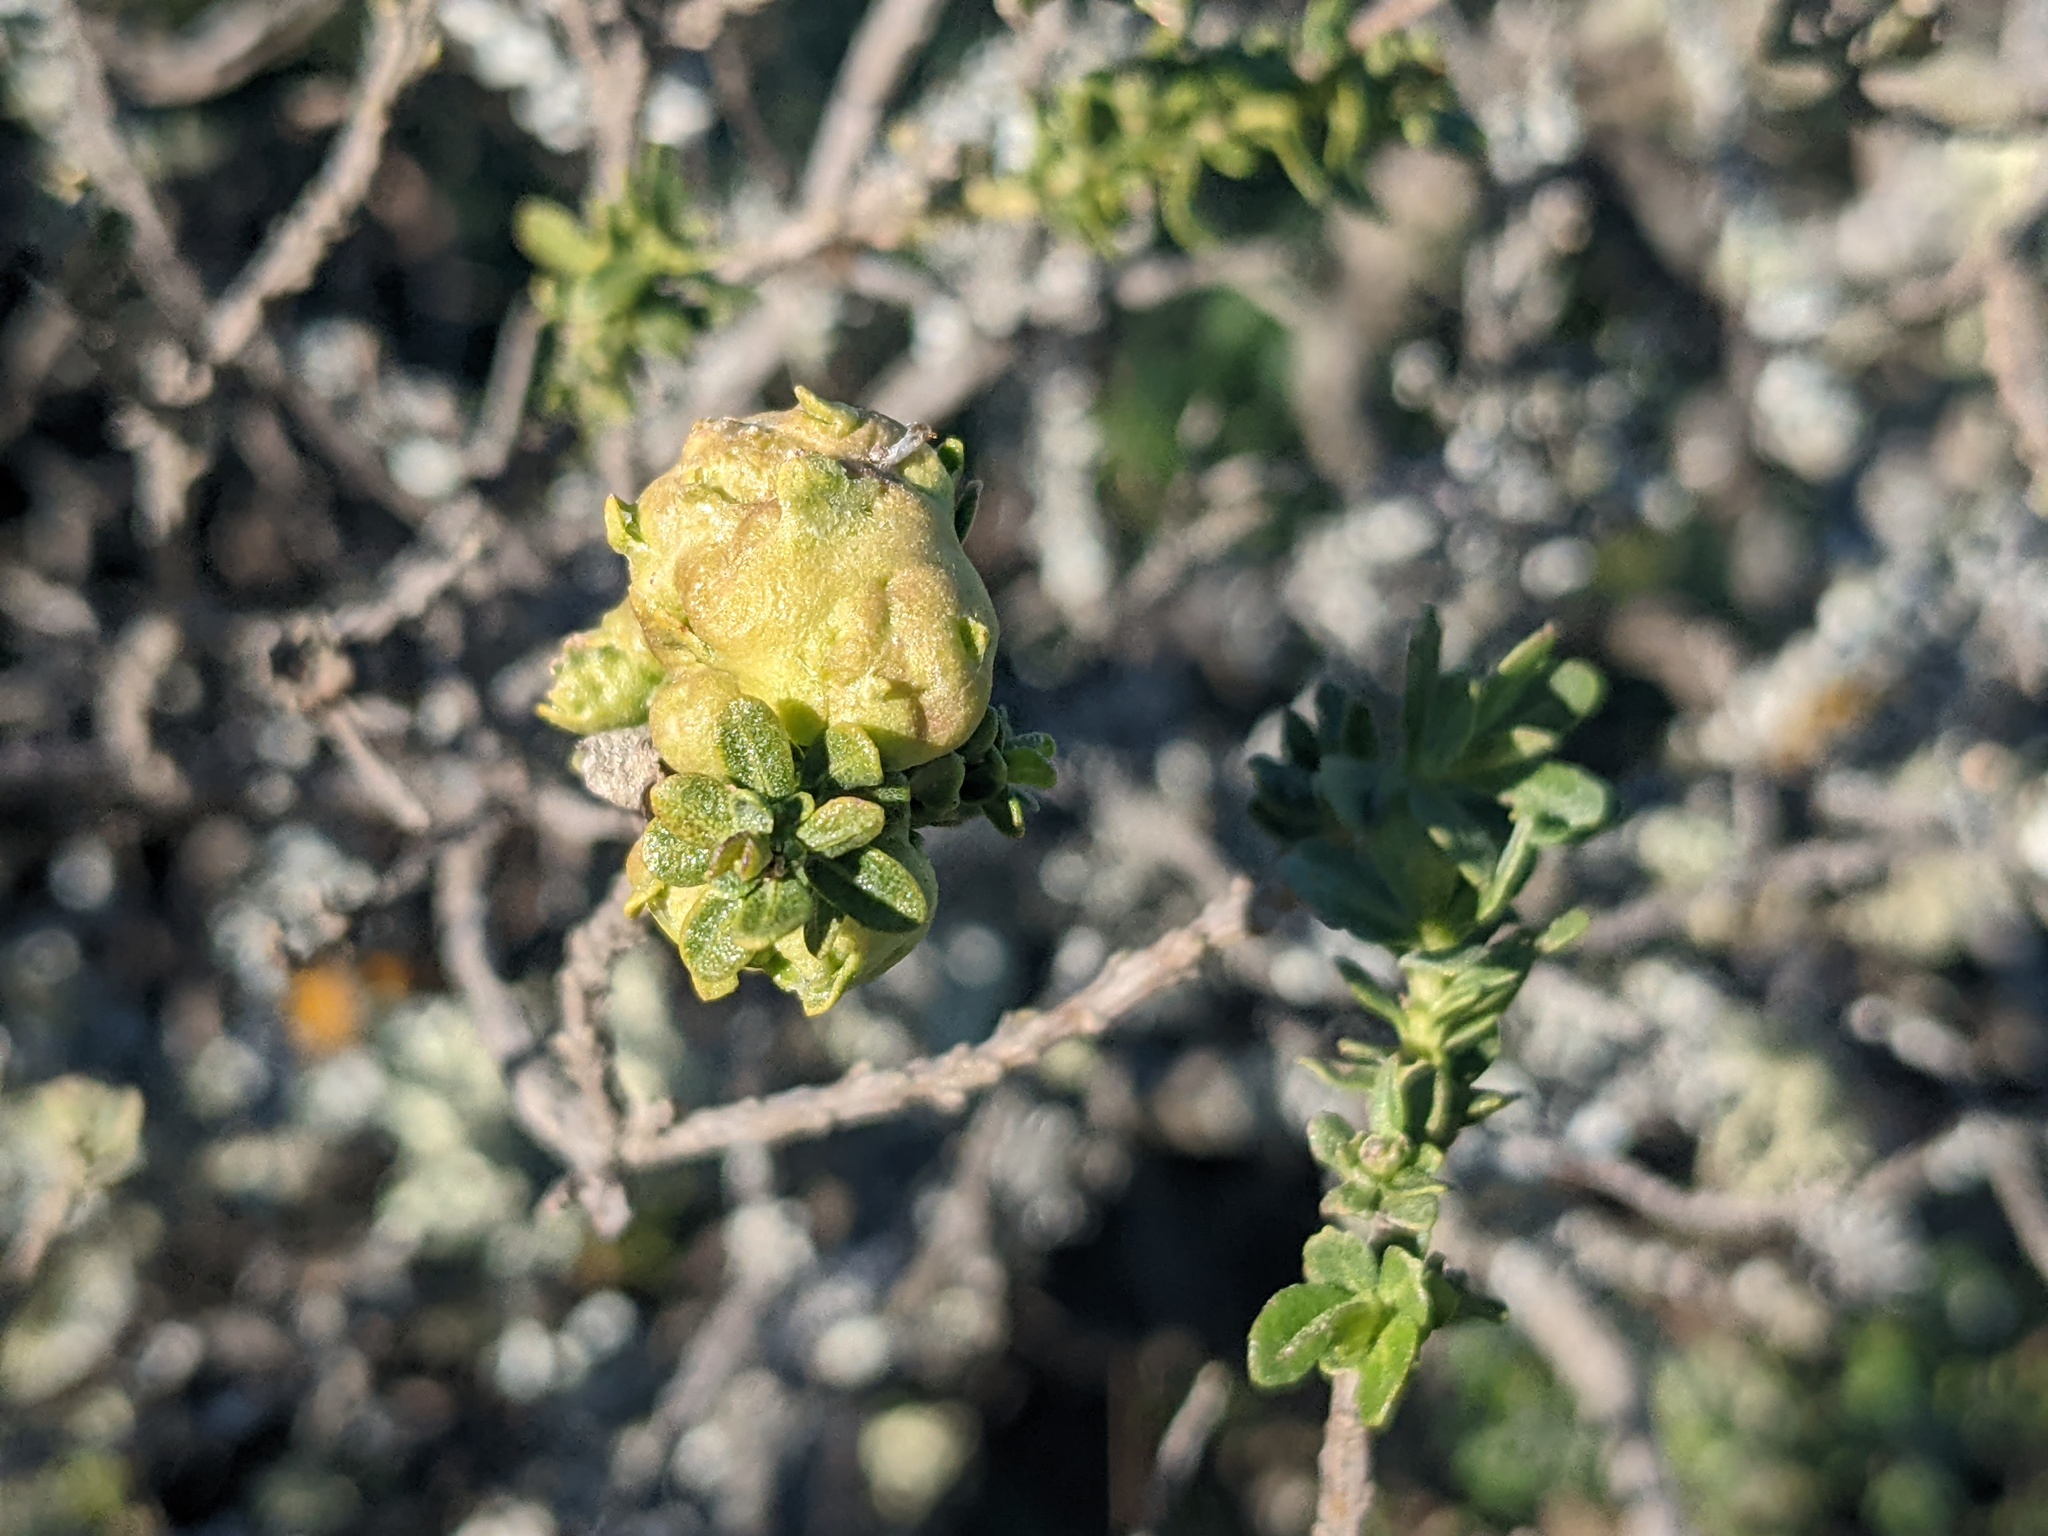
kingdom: Animalia
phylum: Arthropoda
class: Insecta
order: Diptera
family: Cecidomyiidae
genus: Rhopalomyia
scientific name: Rhopalomyia californica
